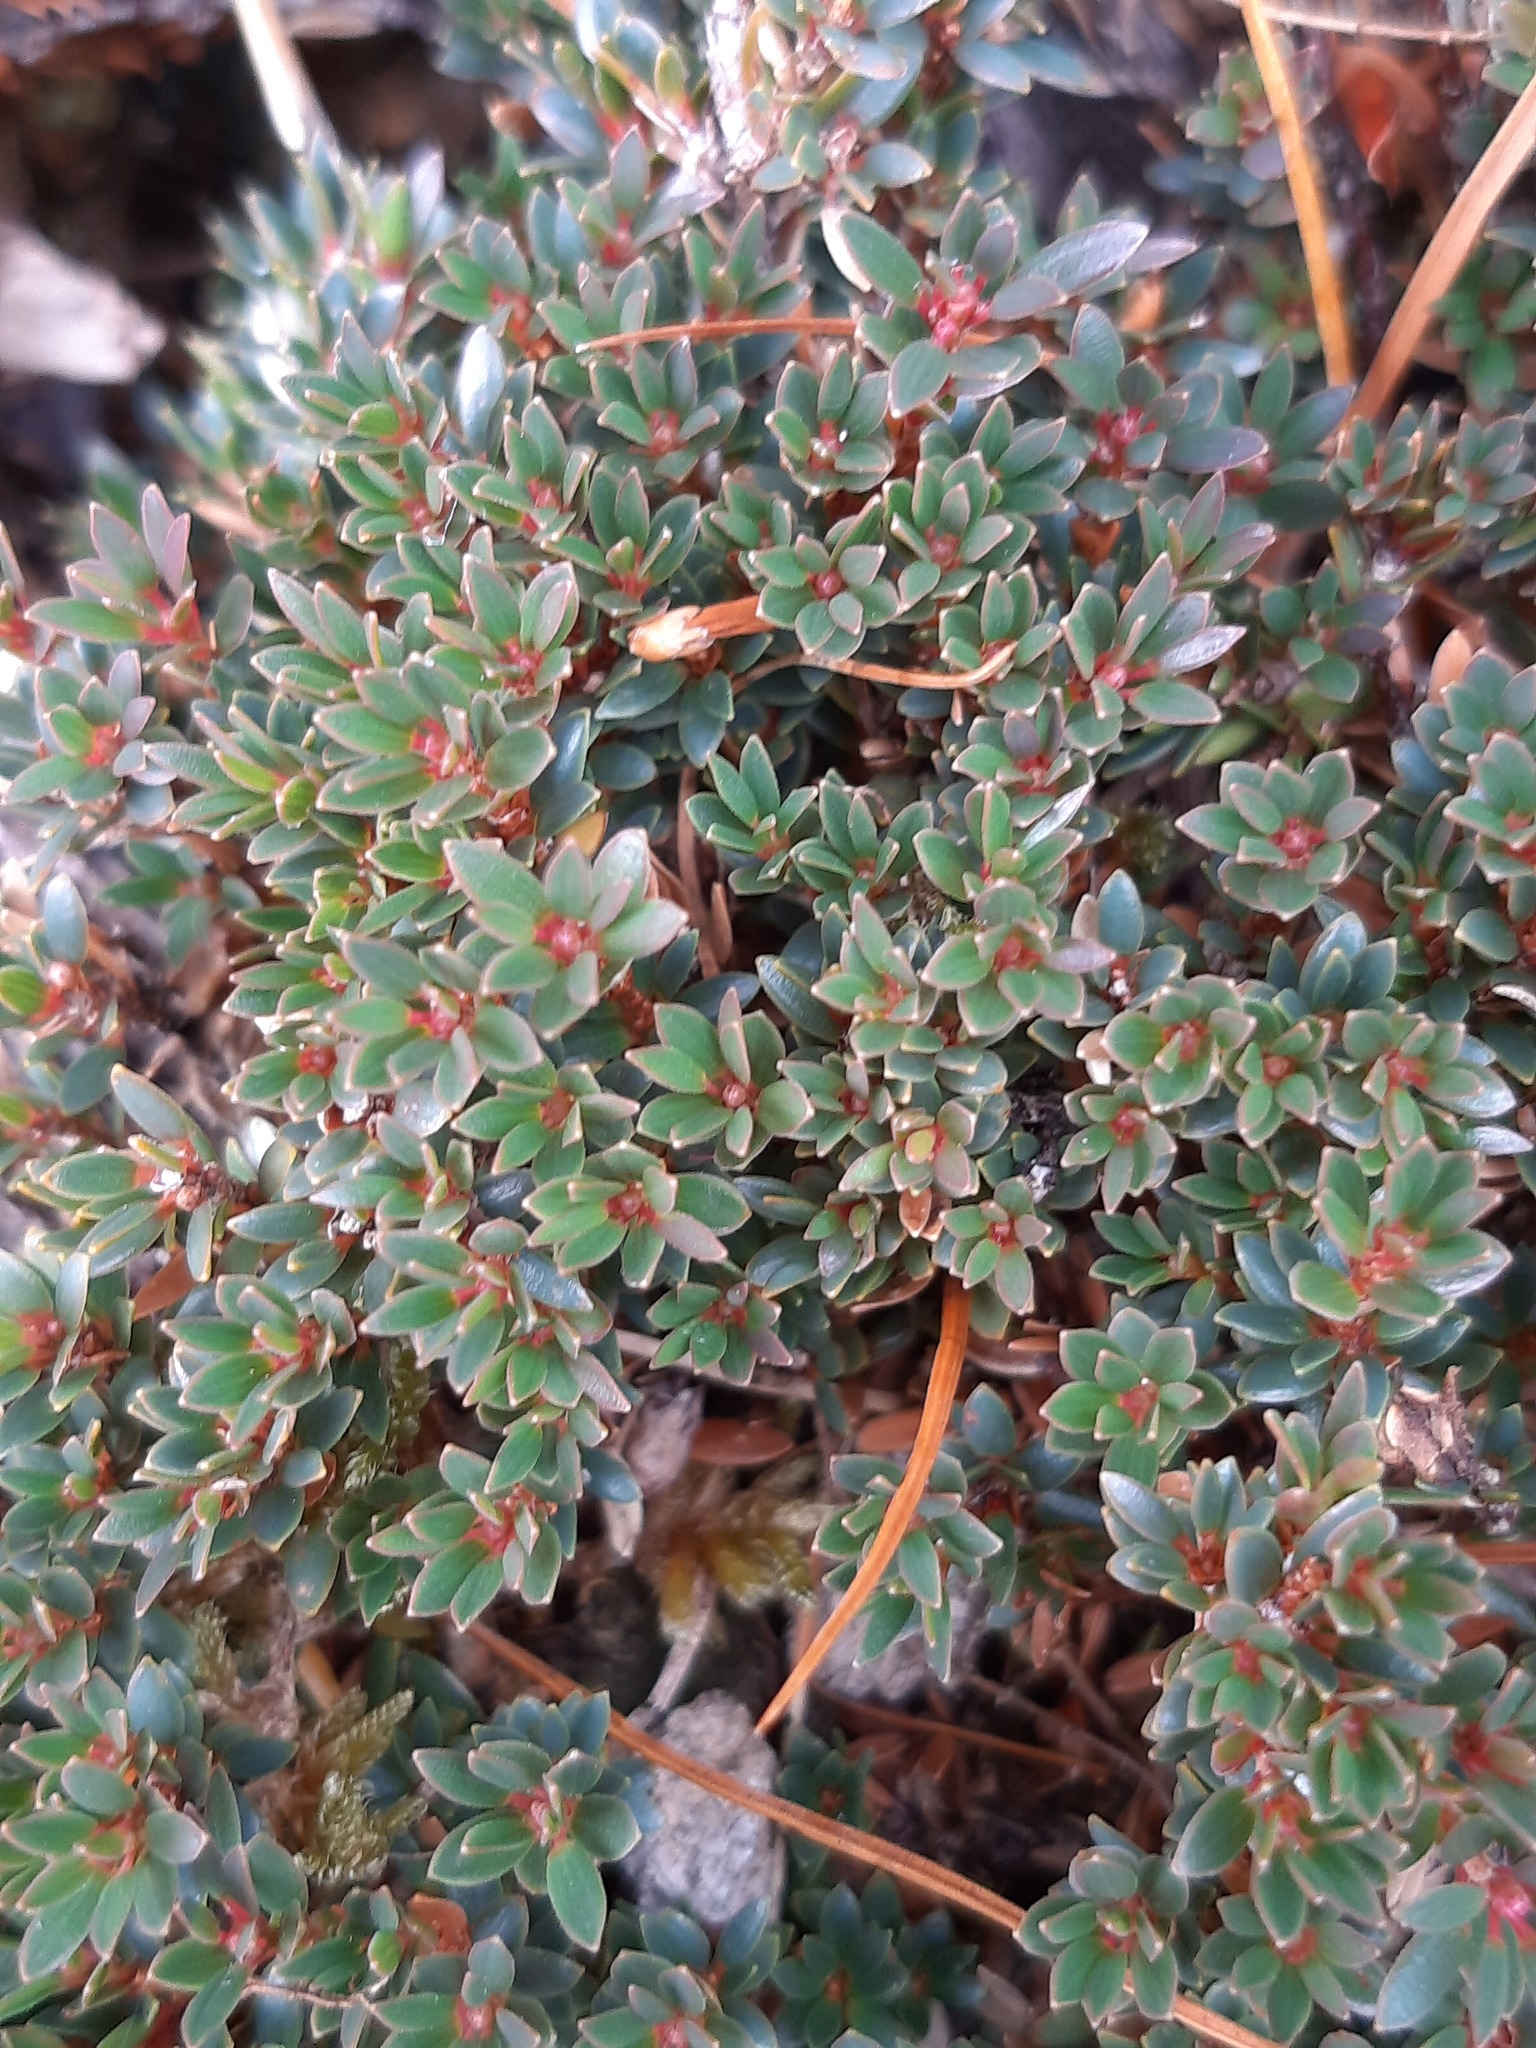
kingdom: Plantae
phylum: Tracheophyta
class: Magnoliopsida
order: Ericales
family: Ericaceae
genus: Pentachondra
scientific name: Pentachondra pumila
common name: Carpet-heath
